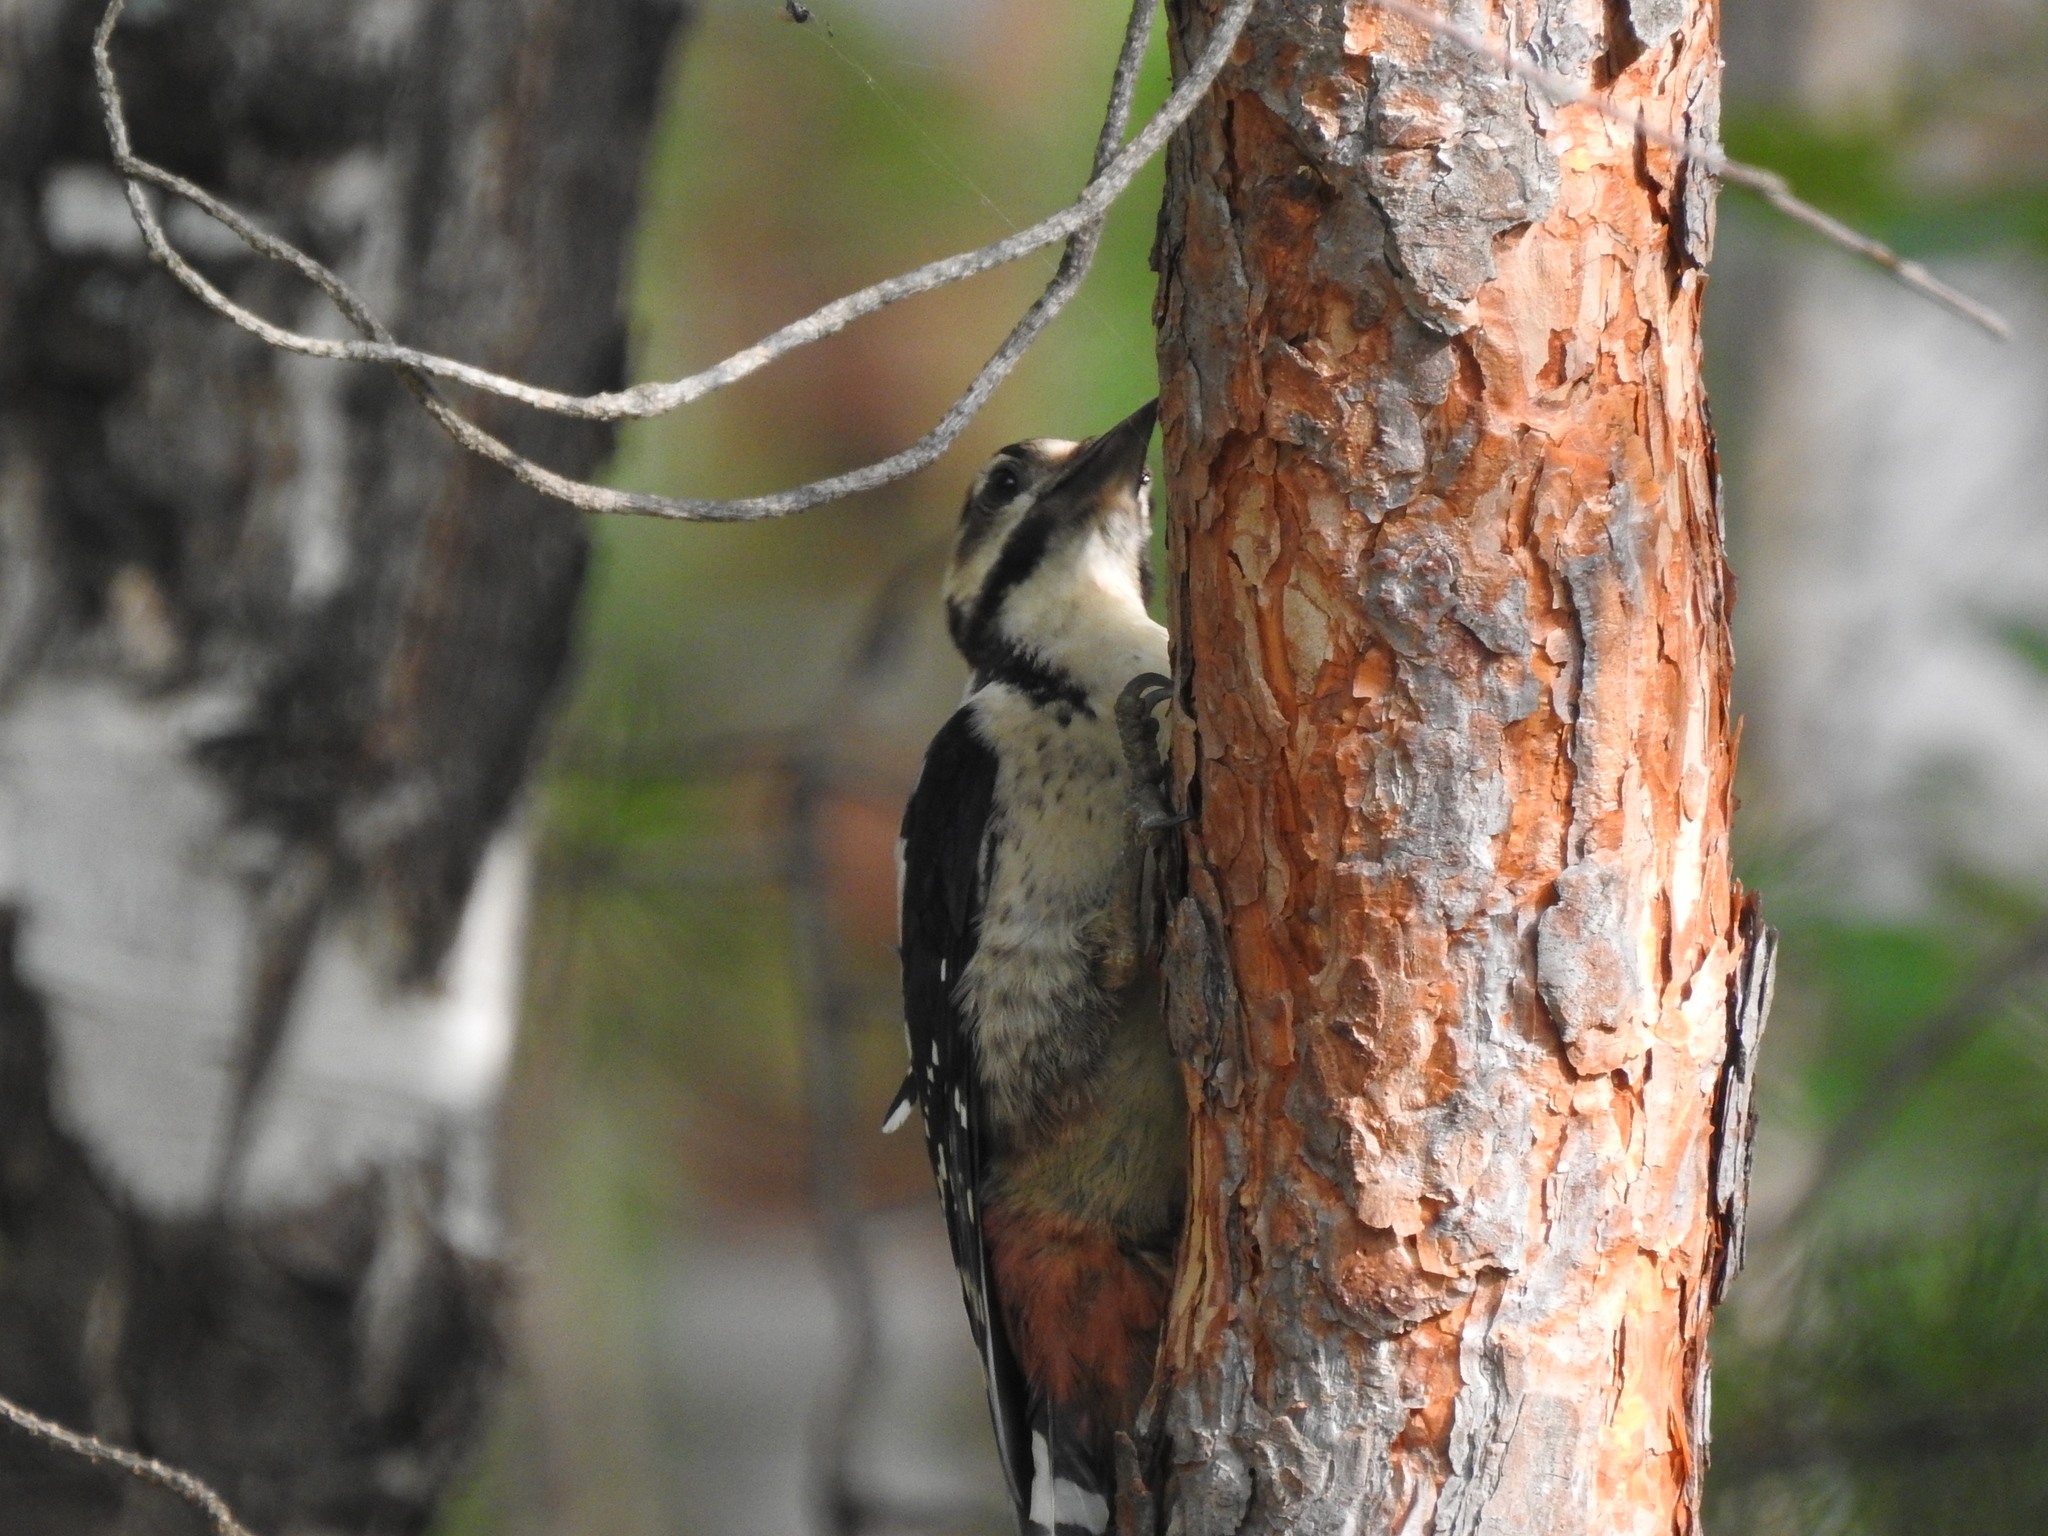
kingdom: Animalia
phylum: Chordata
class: Aves
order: Piciformes
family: Picidae
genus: Dendrocopos
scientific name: Dendrocopos major
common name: Great spotted woodpecker
